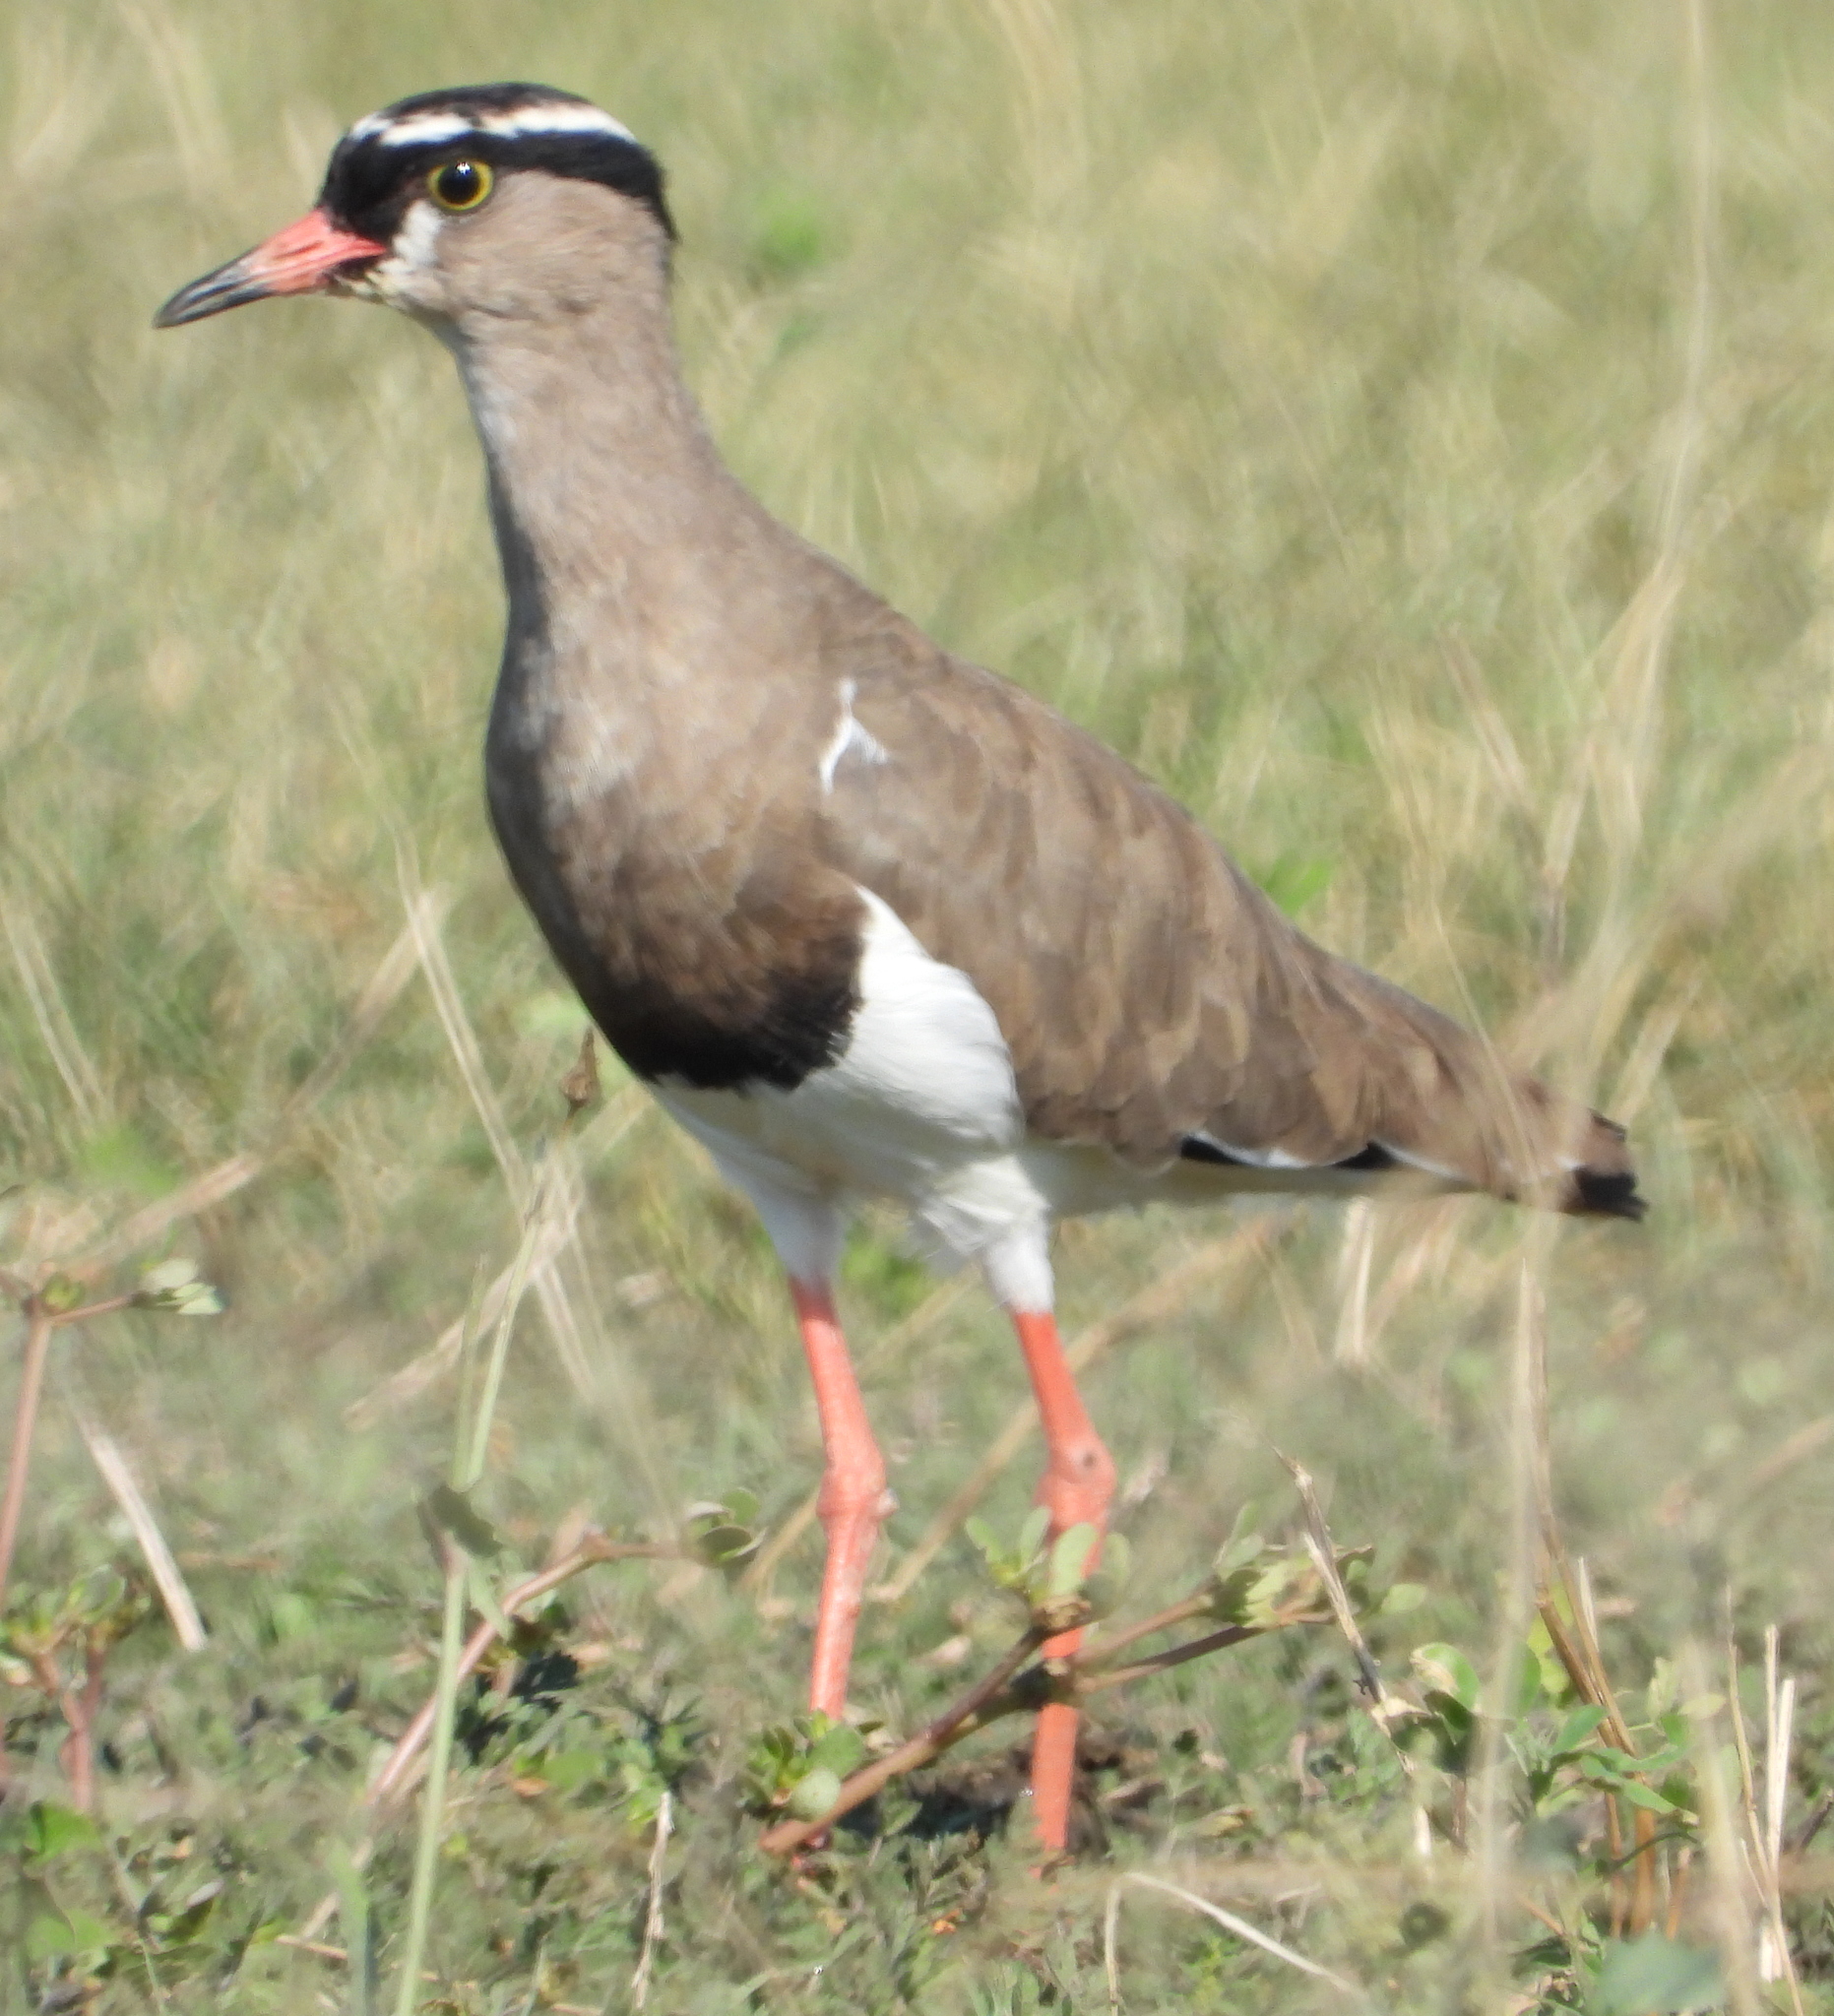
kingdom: Animalia
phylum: Chordata
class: Aves
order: Charadriiformes
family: Charadriidae
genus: Vanellus
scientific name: Vanellus coronatus
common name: Crowned lapwing
